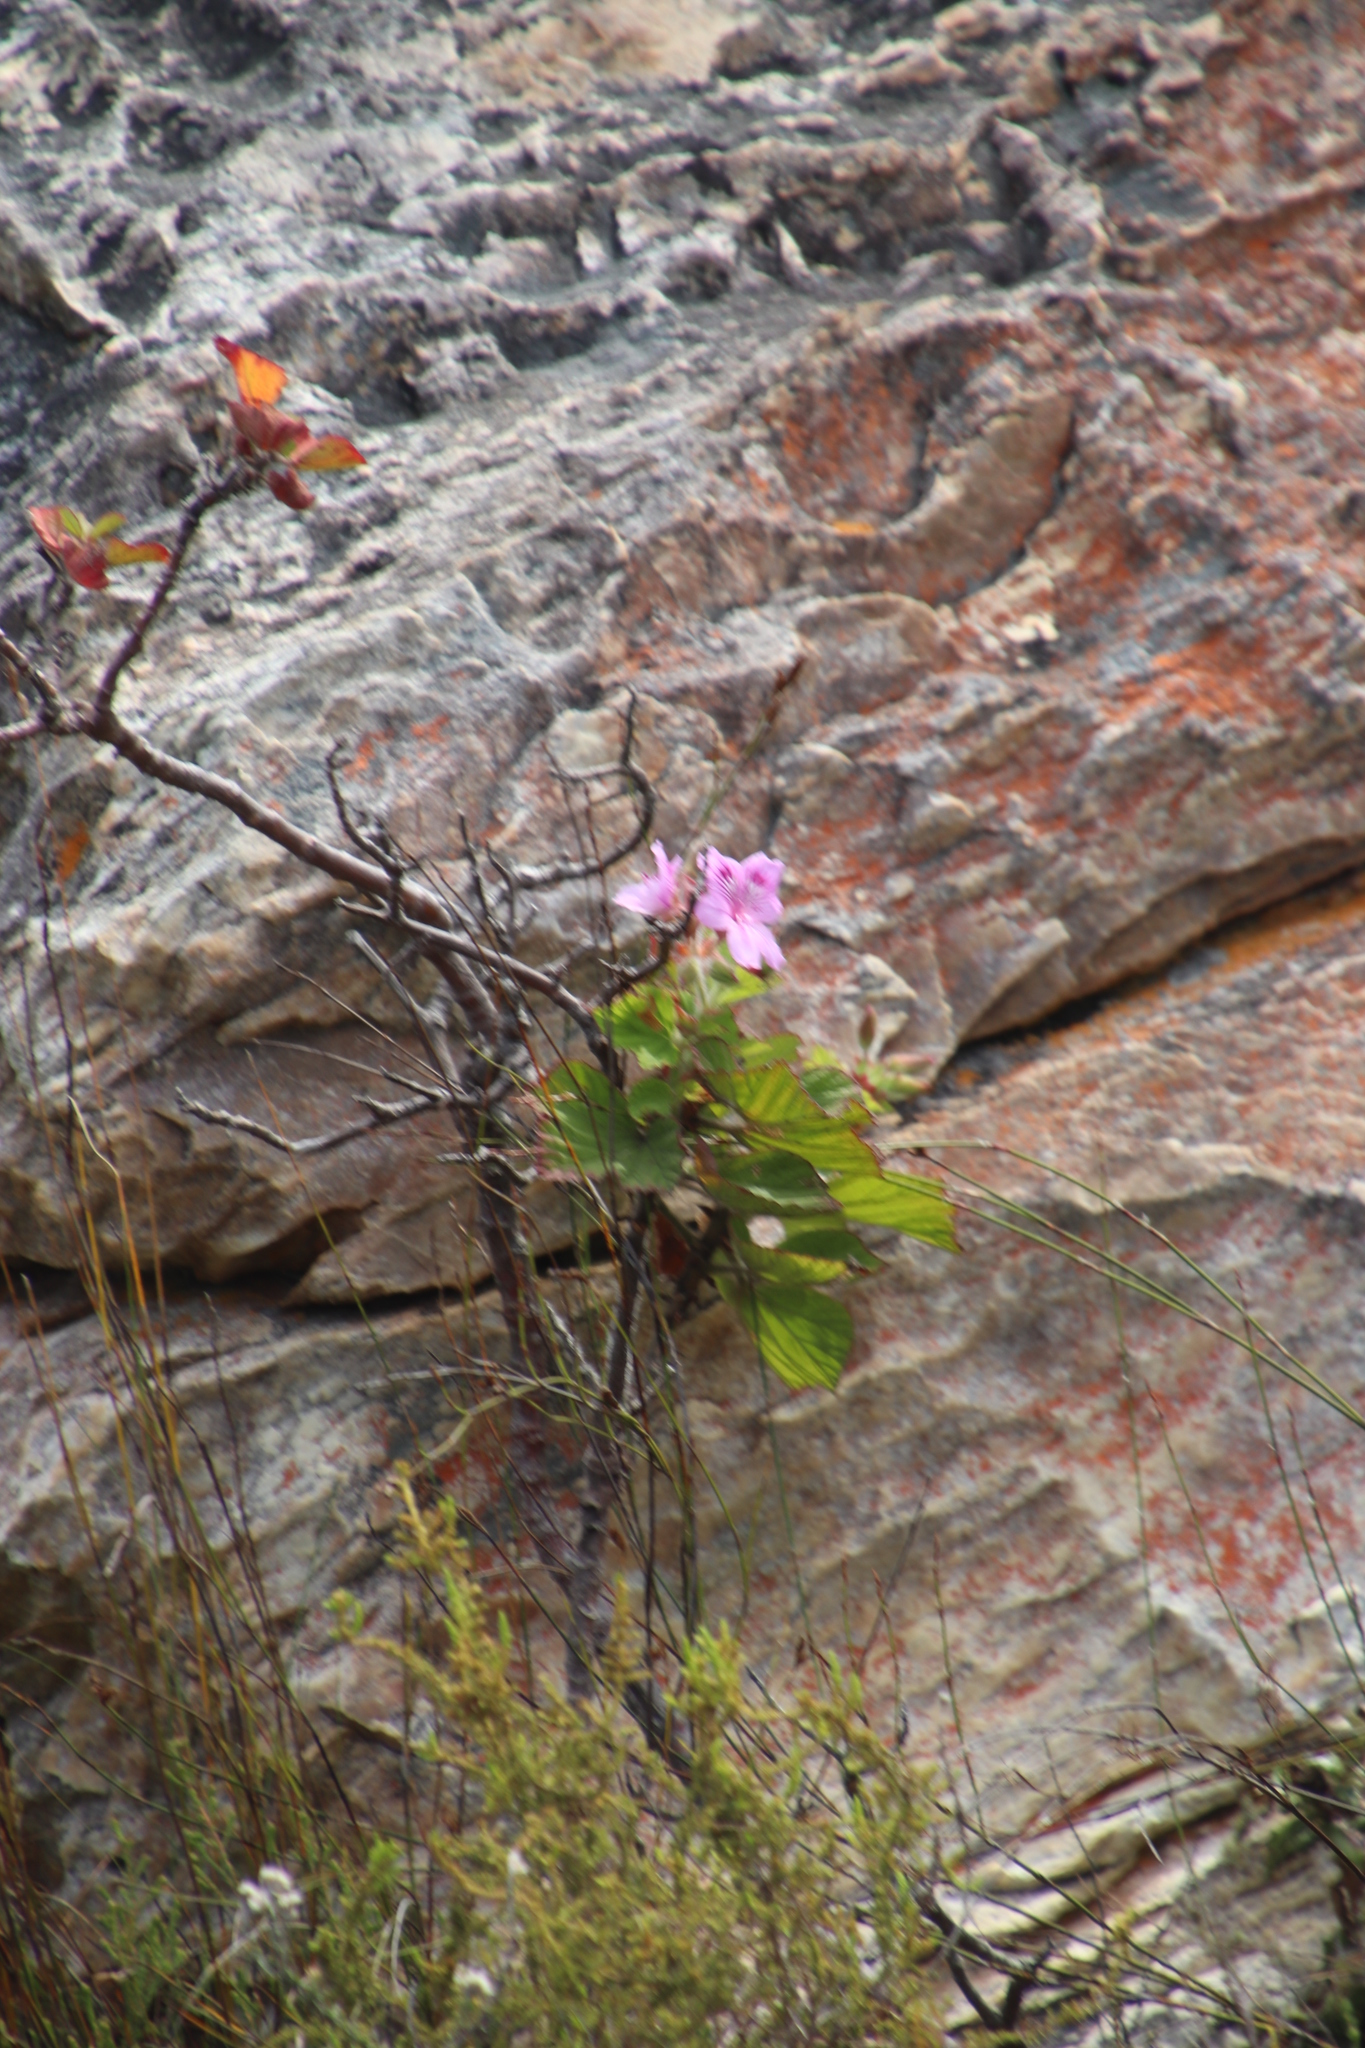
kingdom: Plantae
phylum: Tracheophyta
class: Magnoliopsida
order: Geraniales
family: Geraniaceae
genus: Pelargonium
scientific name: Pelargonium cucullatum
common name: Tree pelargonium
